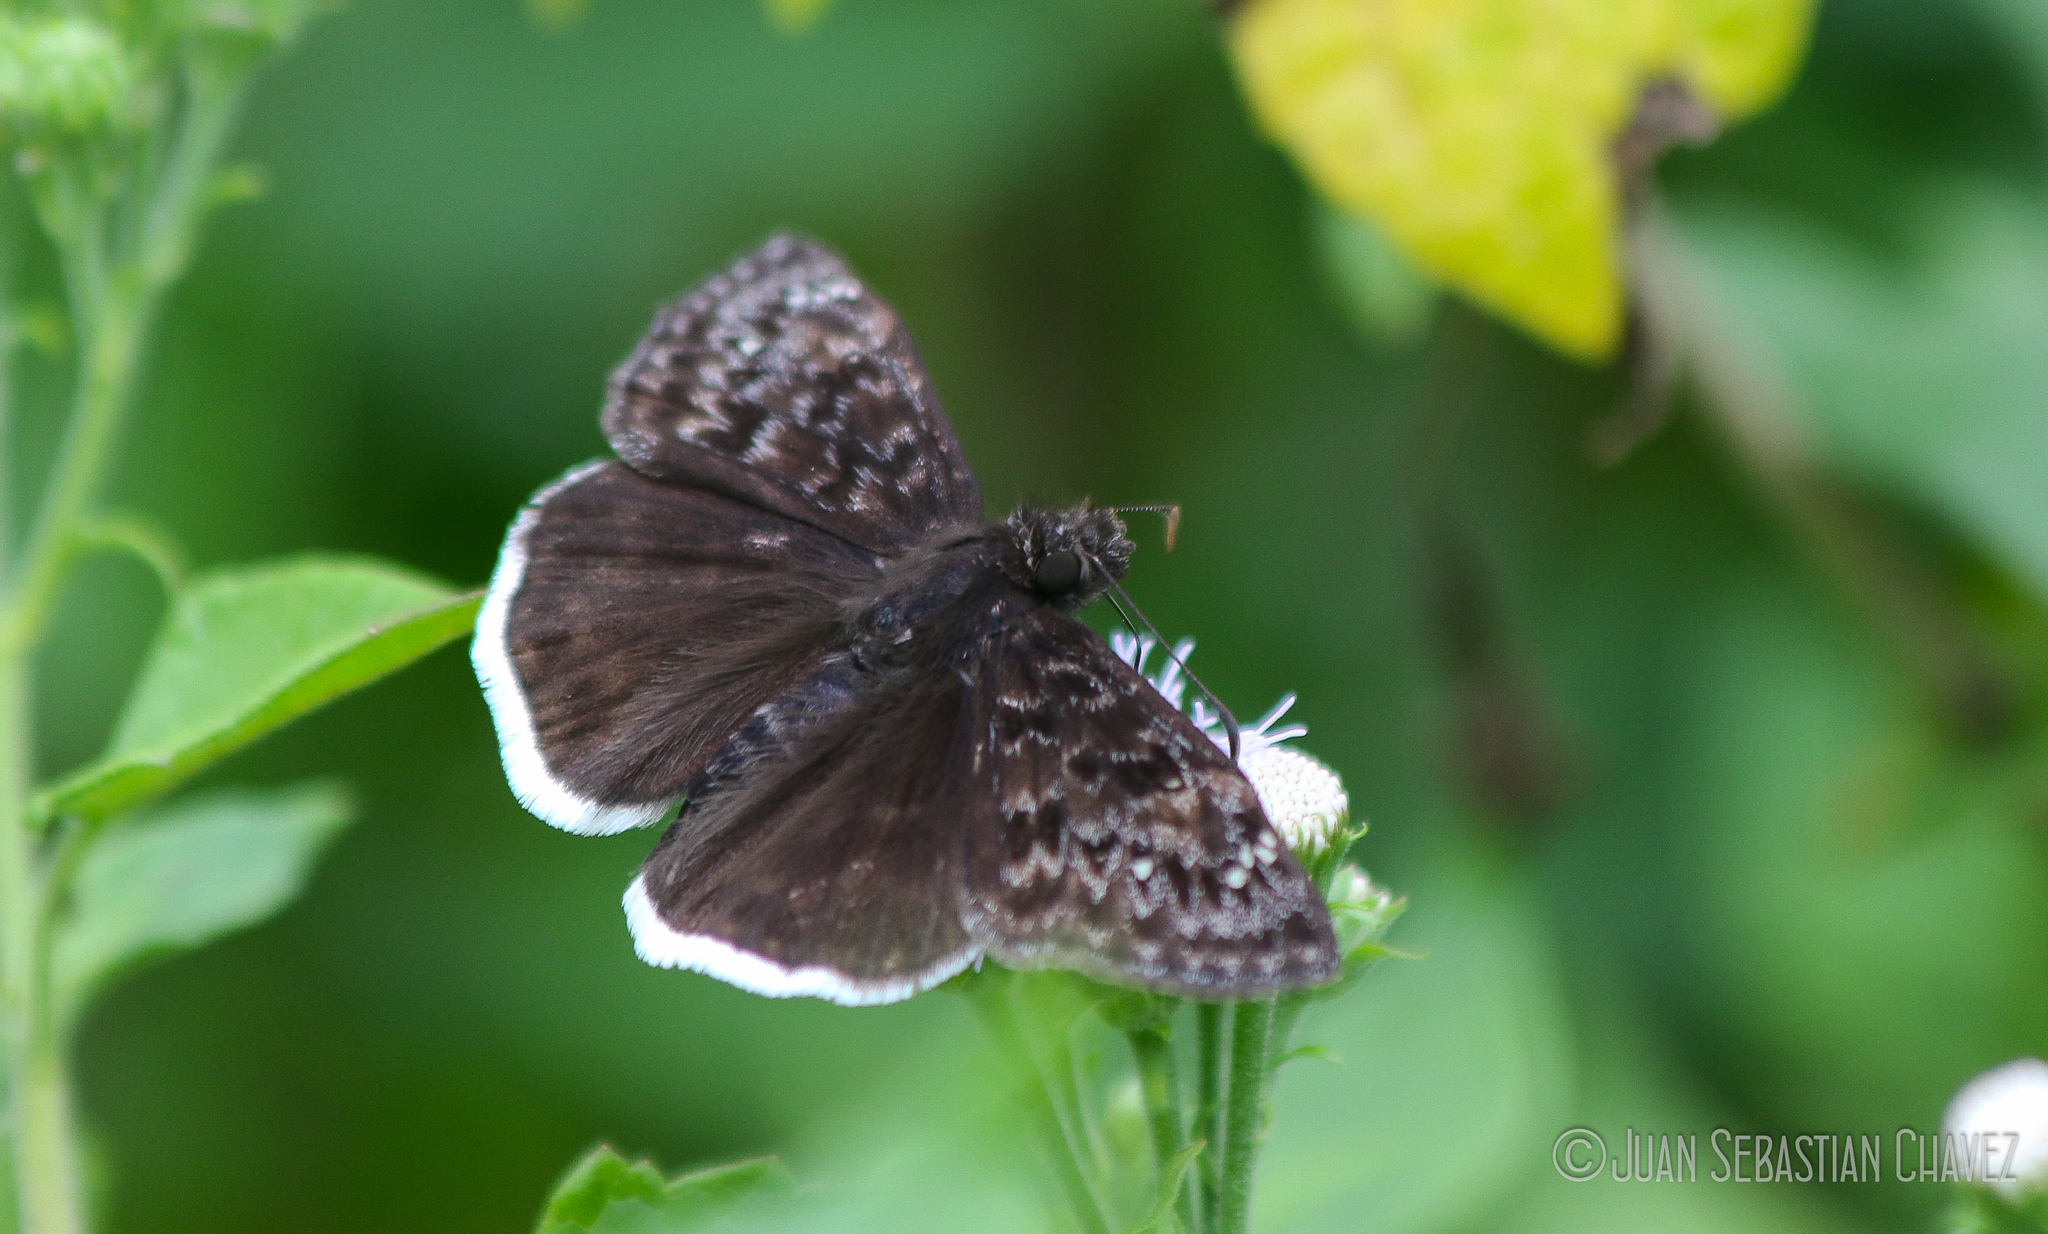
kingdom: Animalia
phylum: Arthropoda
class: Insecta
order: Lepidoptera
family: Hesperiidae
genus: Erynnis
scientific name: Erynnis tristis
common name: Mournful duskywing
